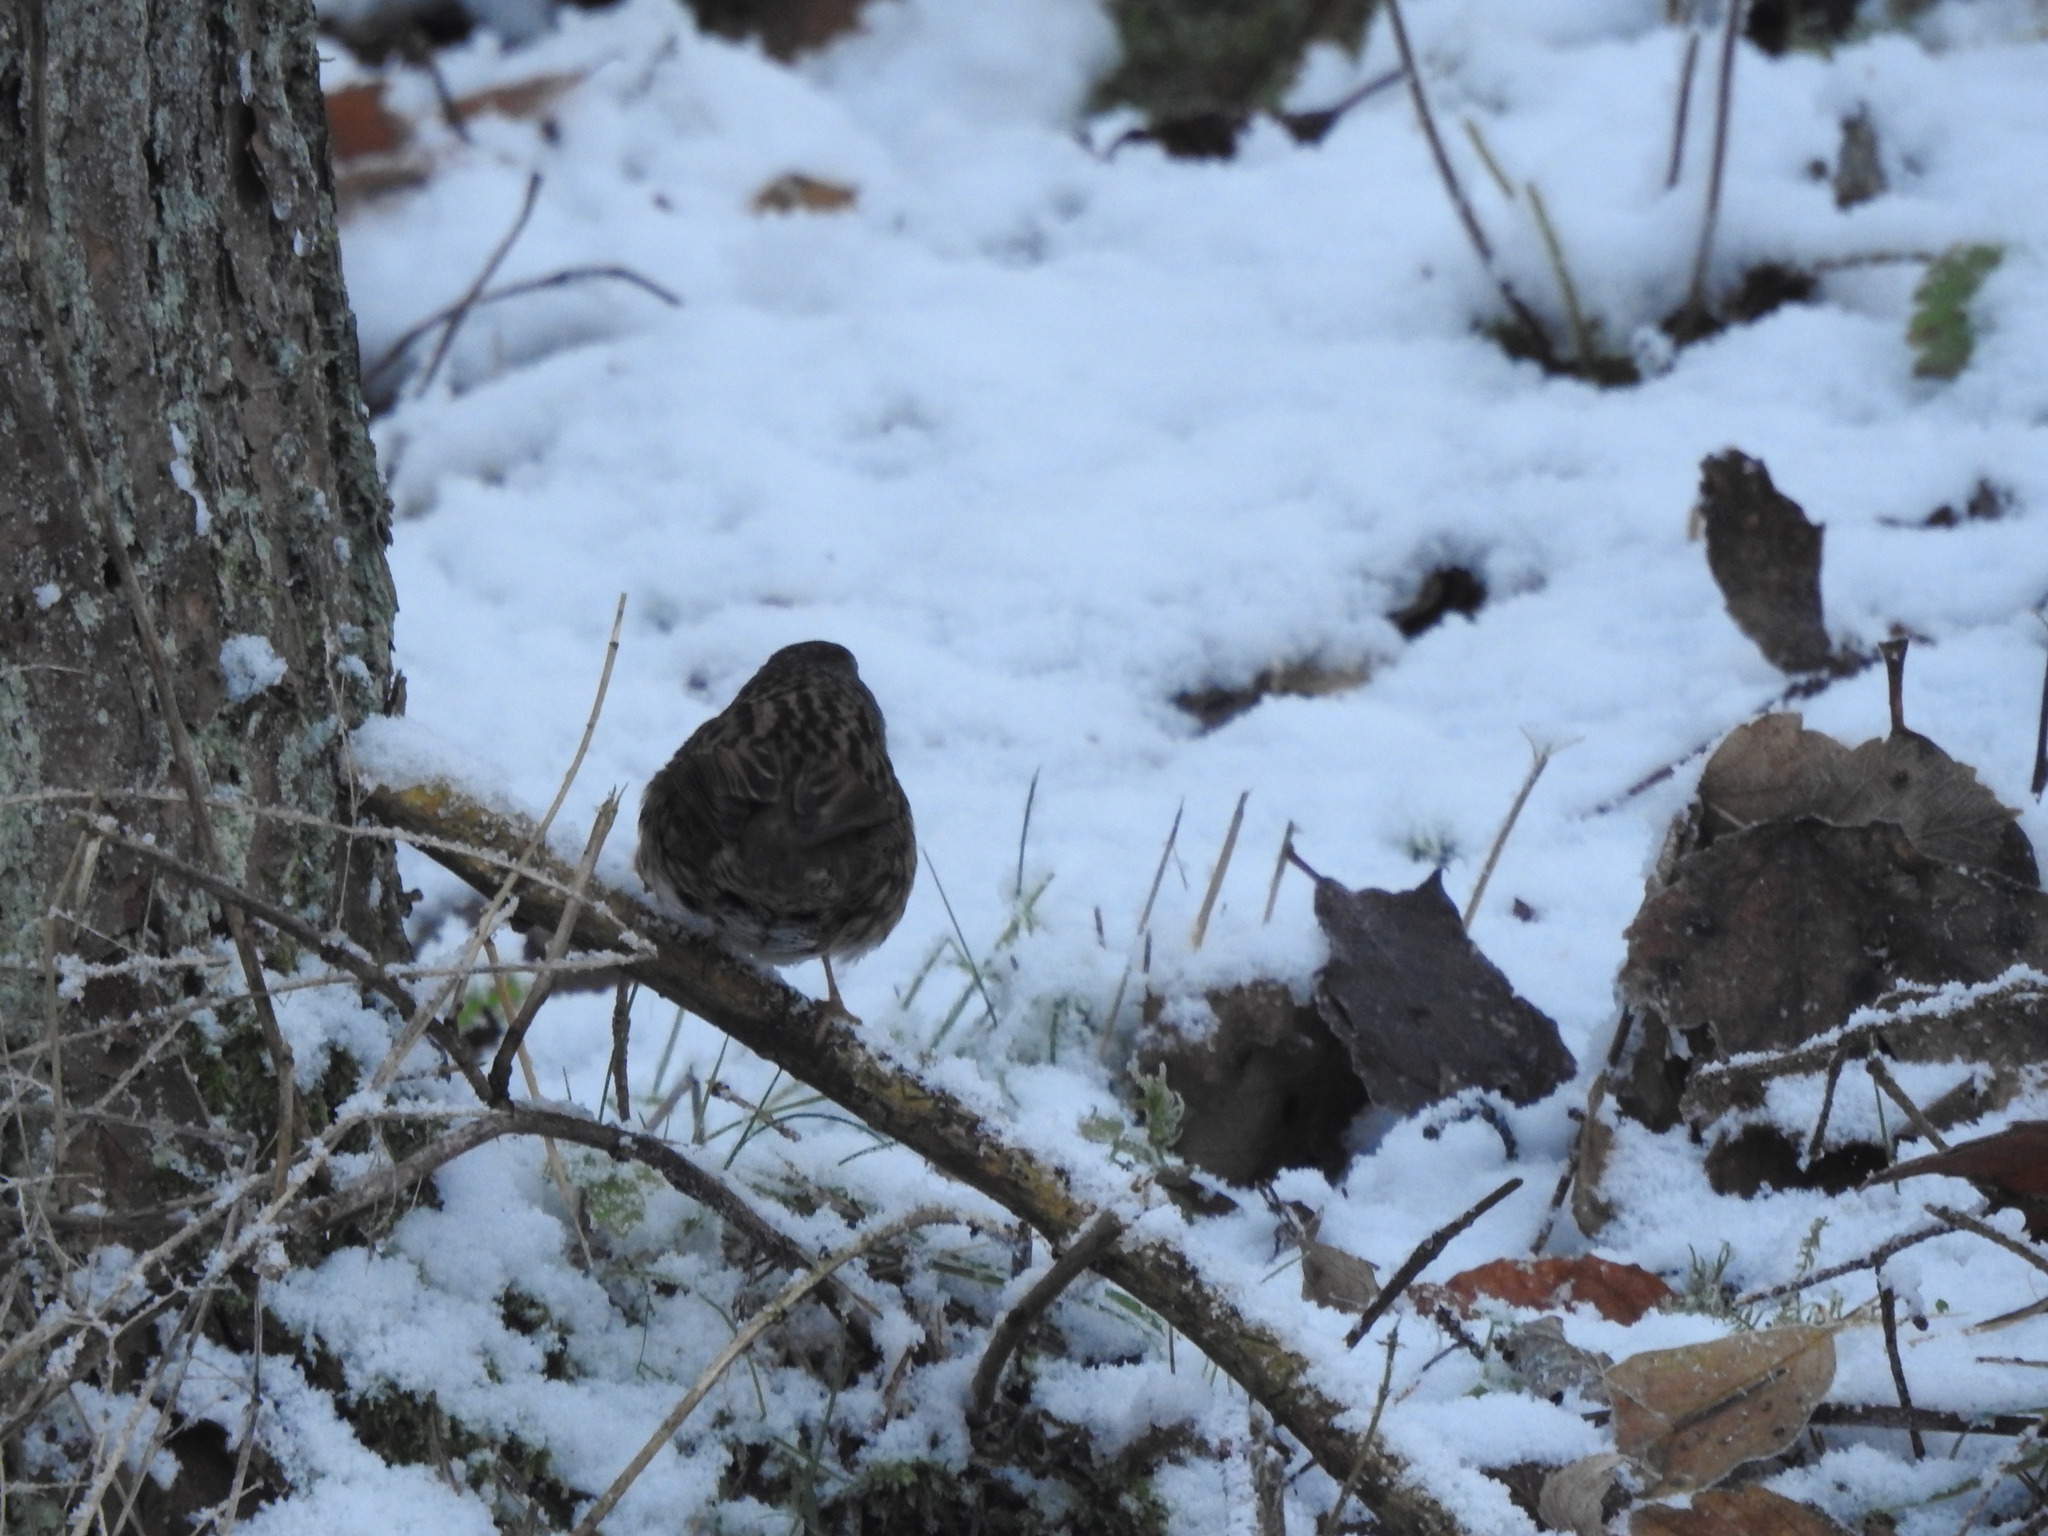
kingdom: Animalia
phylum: Chordata
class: Aves
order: Passeriformes
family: Prunellidae
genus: Prunella
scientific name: Prunella modularis
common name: Dunnock
